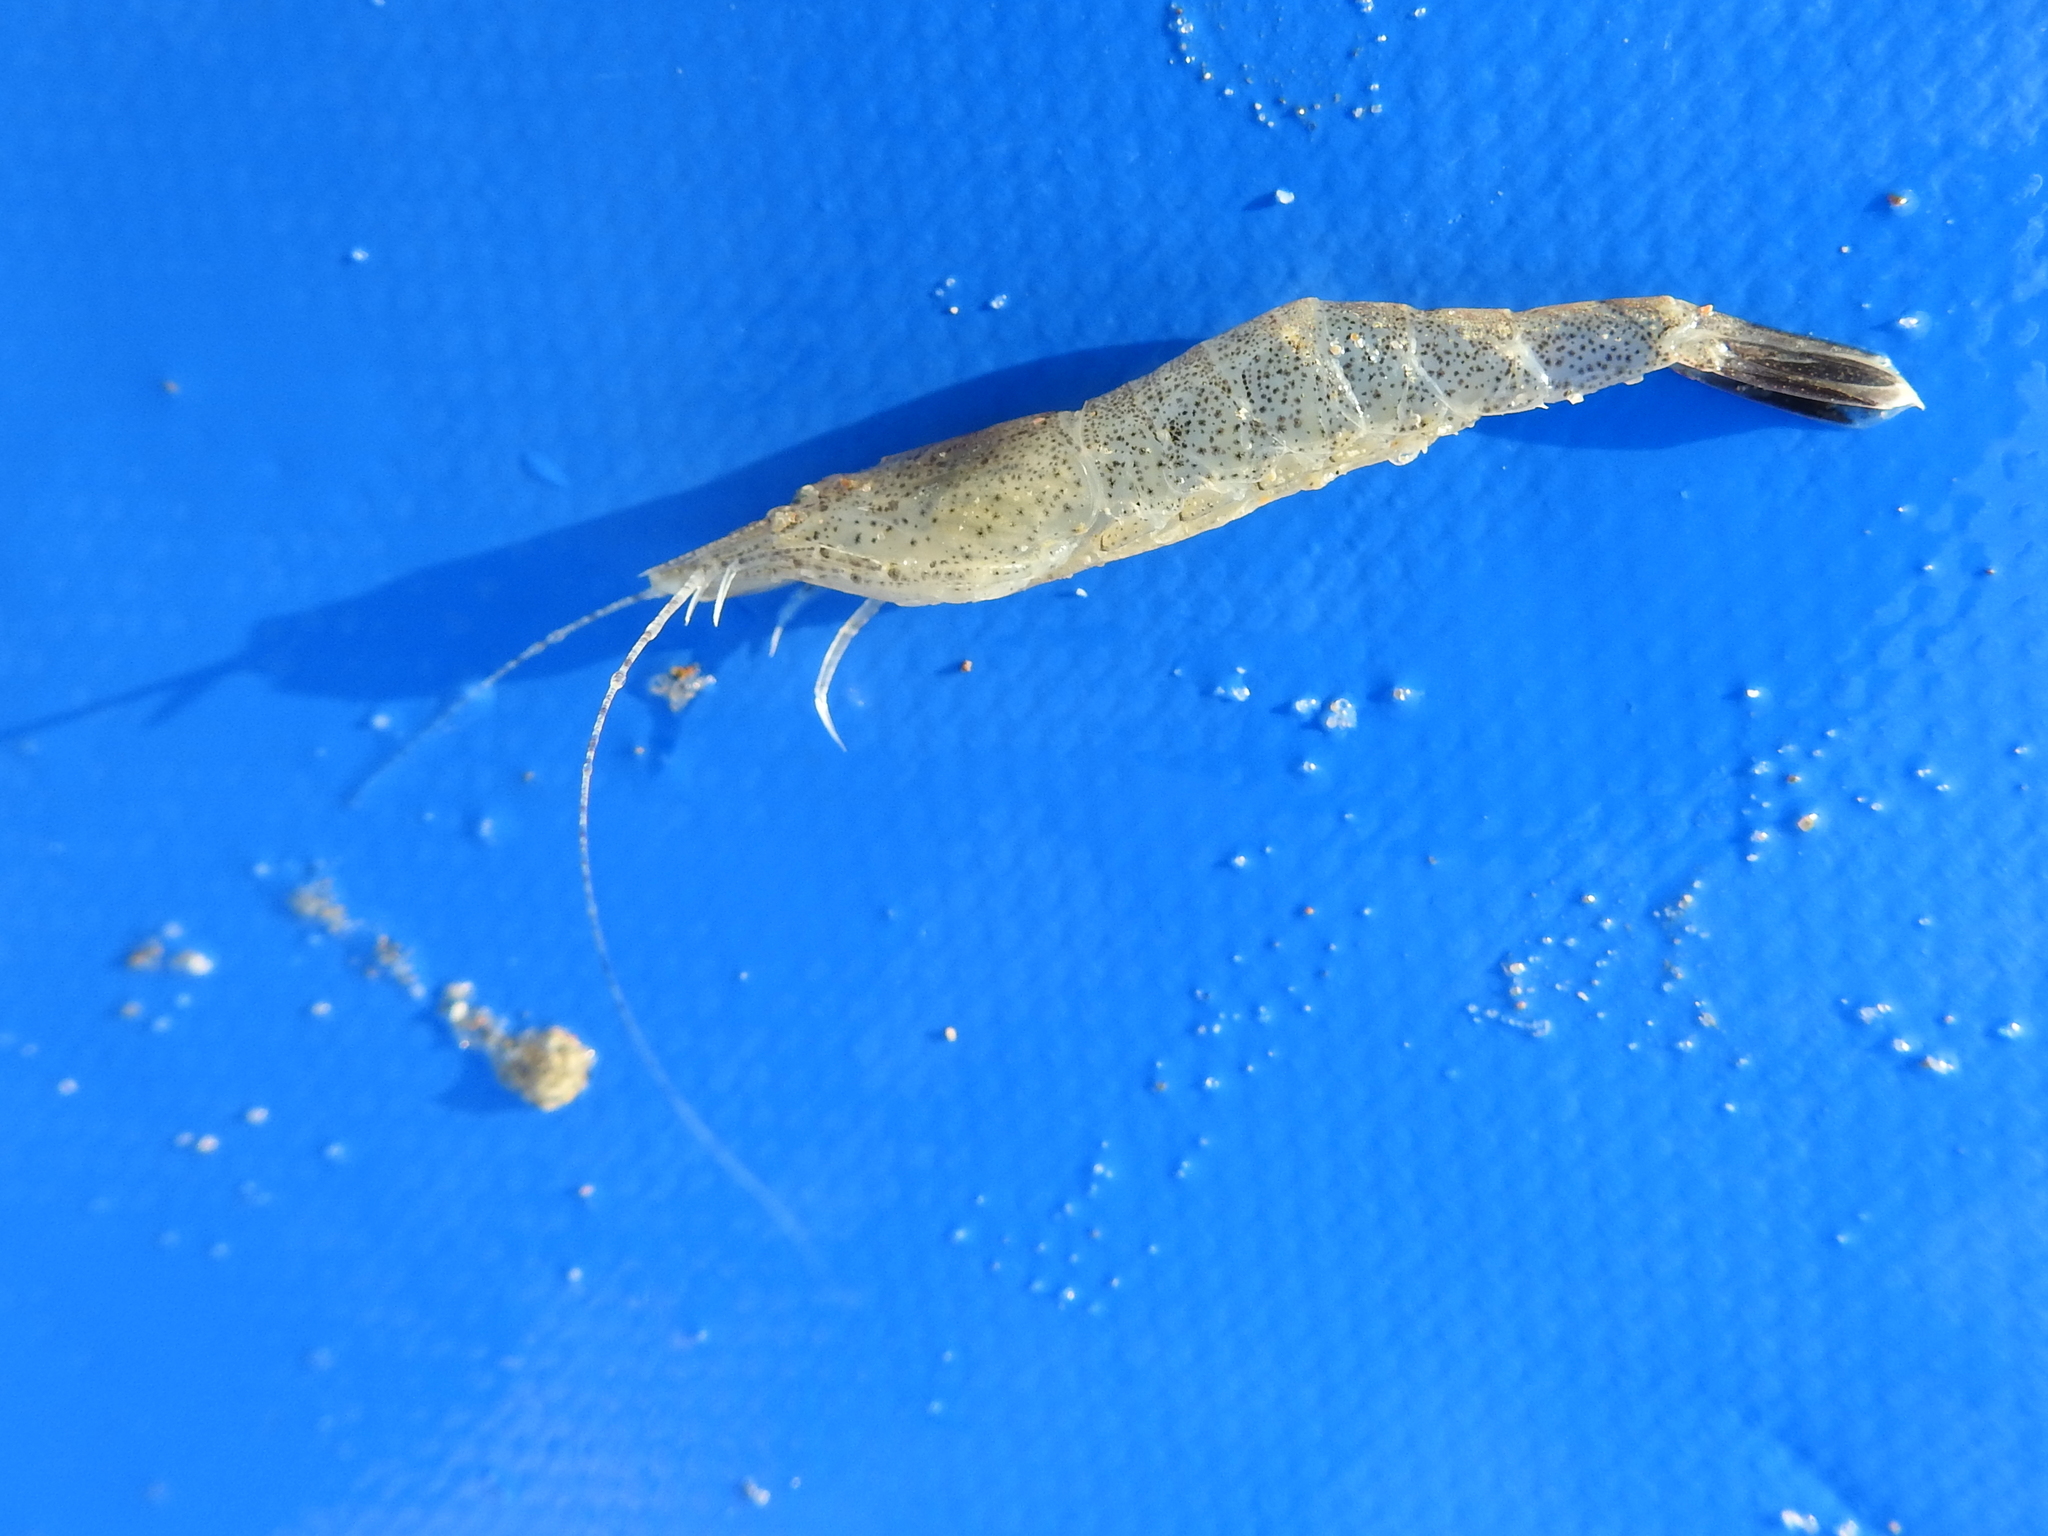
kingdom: Animalia
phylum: Arthropoda
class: Malacostraca
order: Decapoda
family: Crangonidae
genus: Crangon
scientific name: Crangon crangon
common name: Brown shrimp
